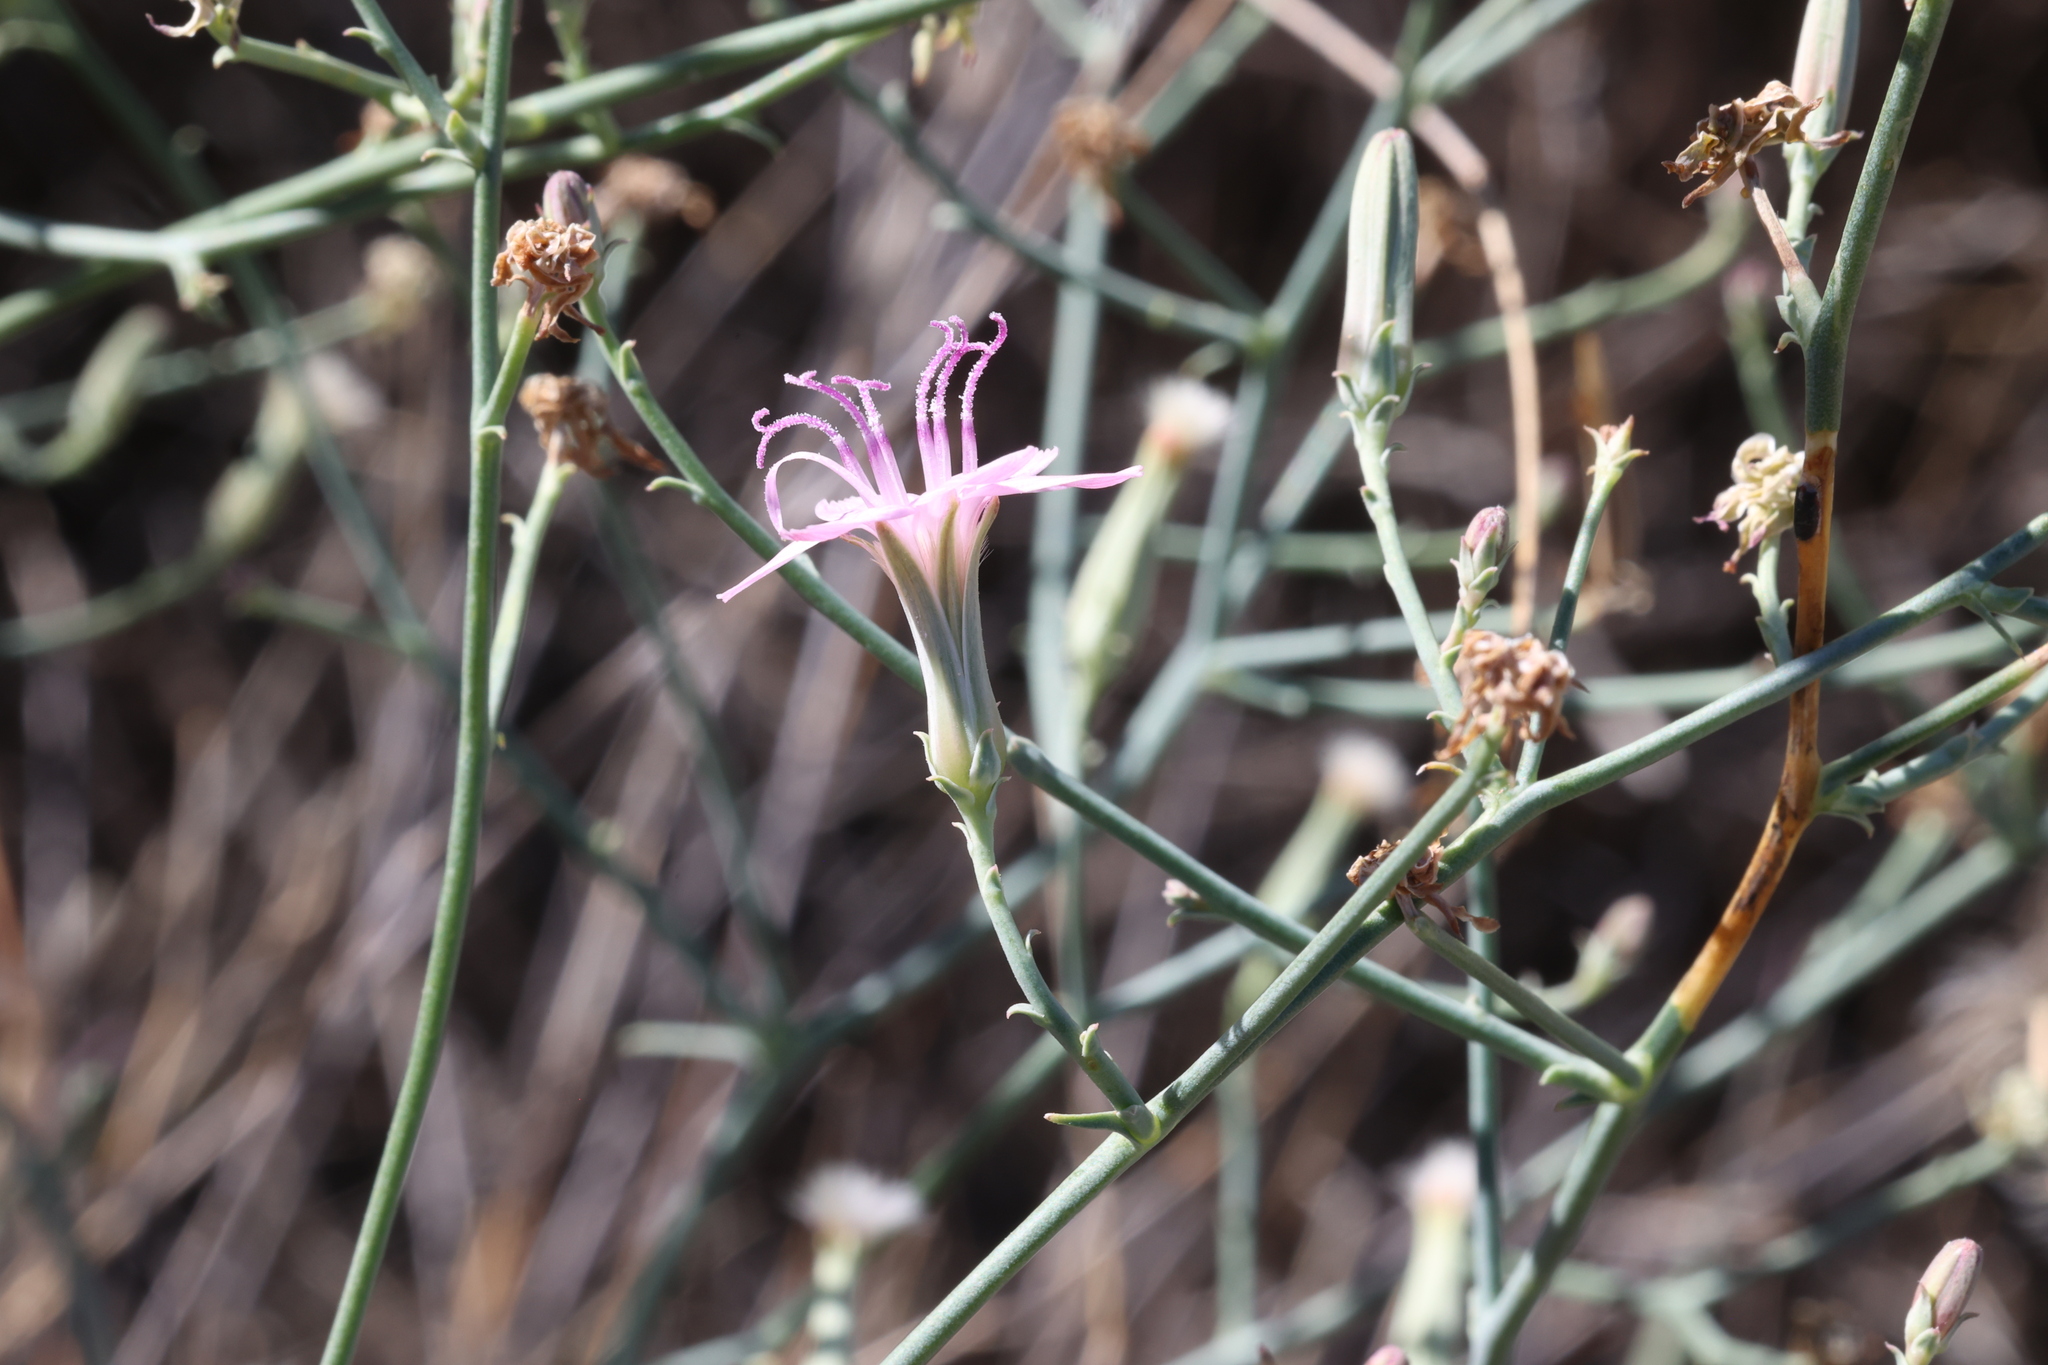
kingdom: Plantae
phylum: Tracheophyta
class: Magnoliopsida
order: Asterales
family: Asteraceae
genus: Stephanomeria
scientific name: Stephanomeria pauciflora
